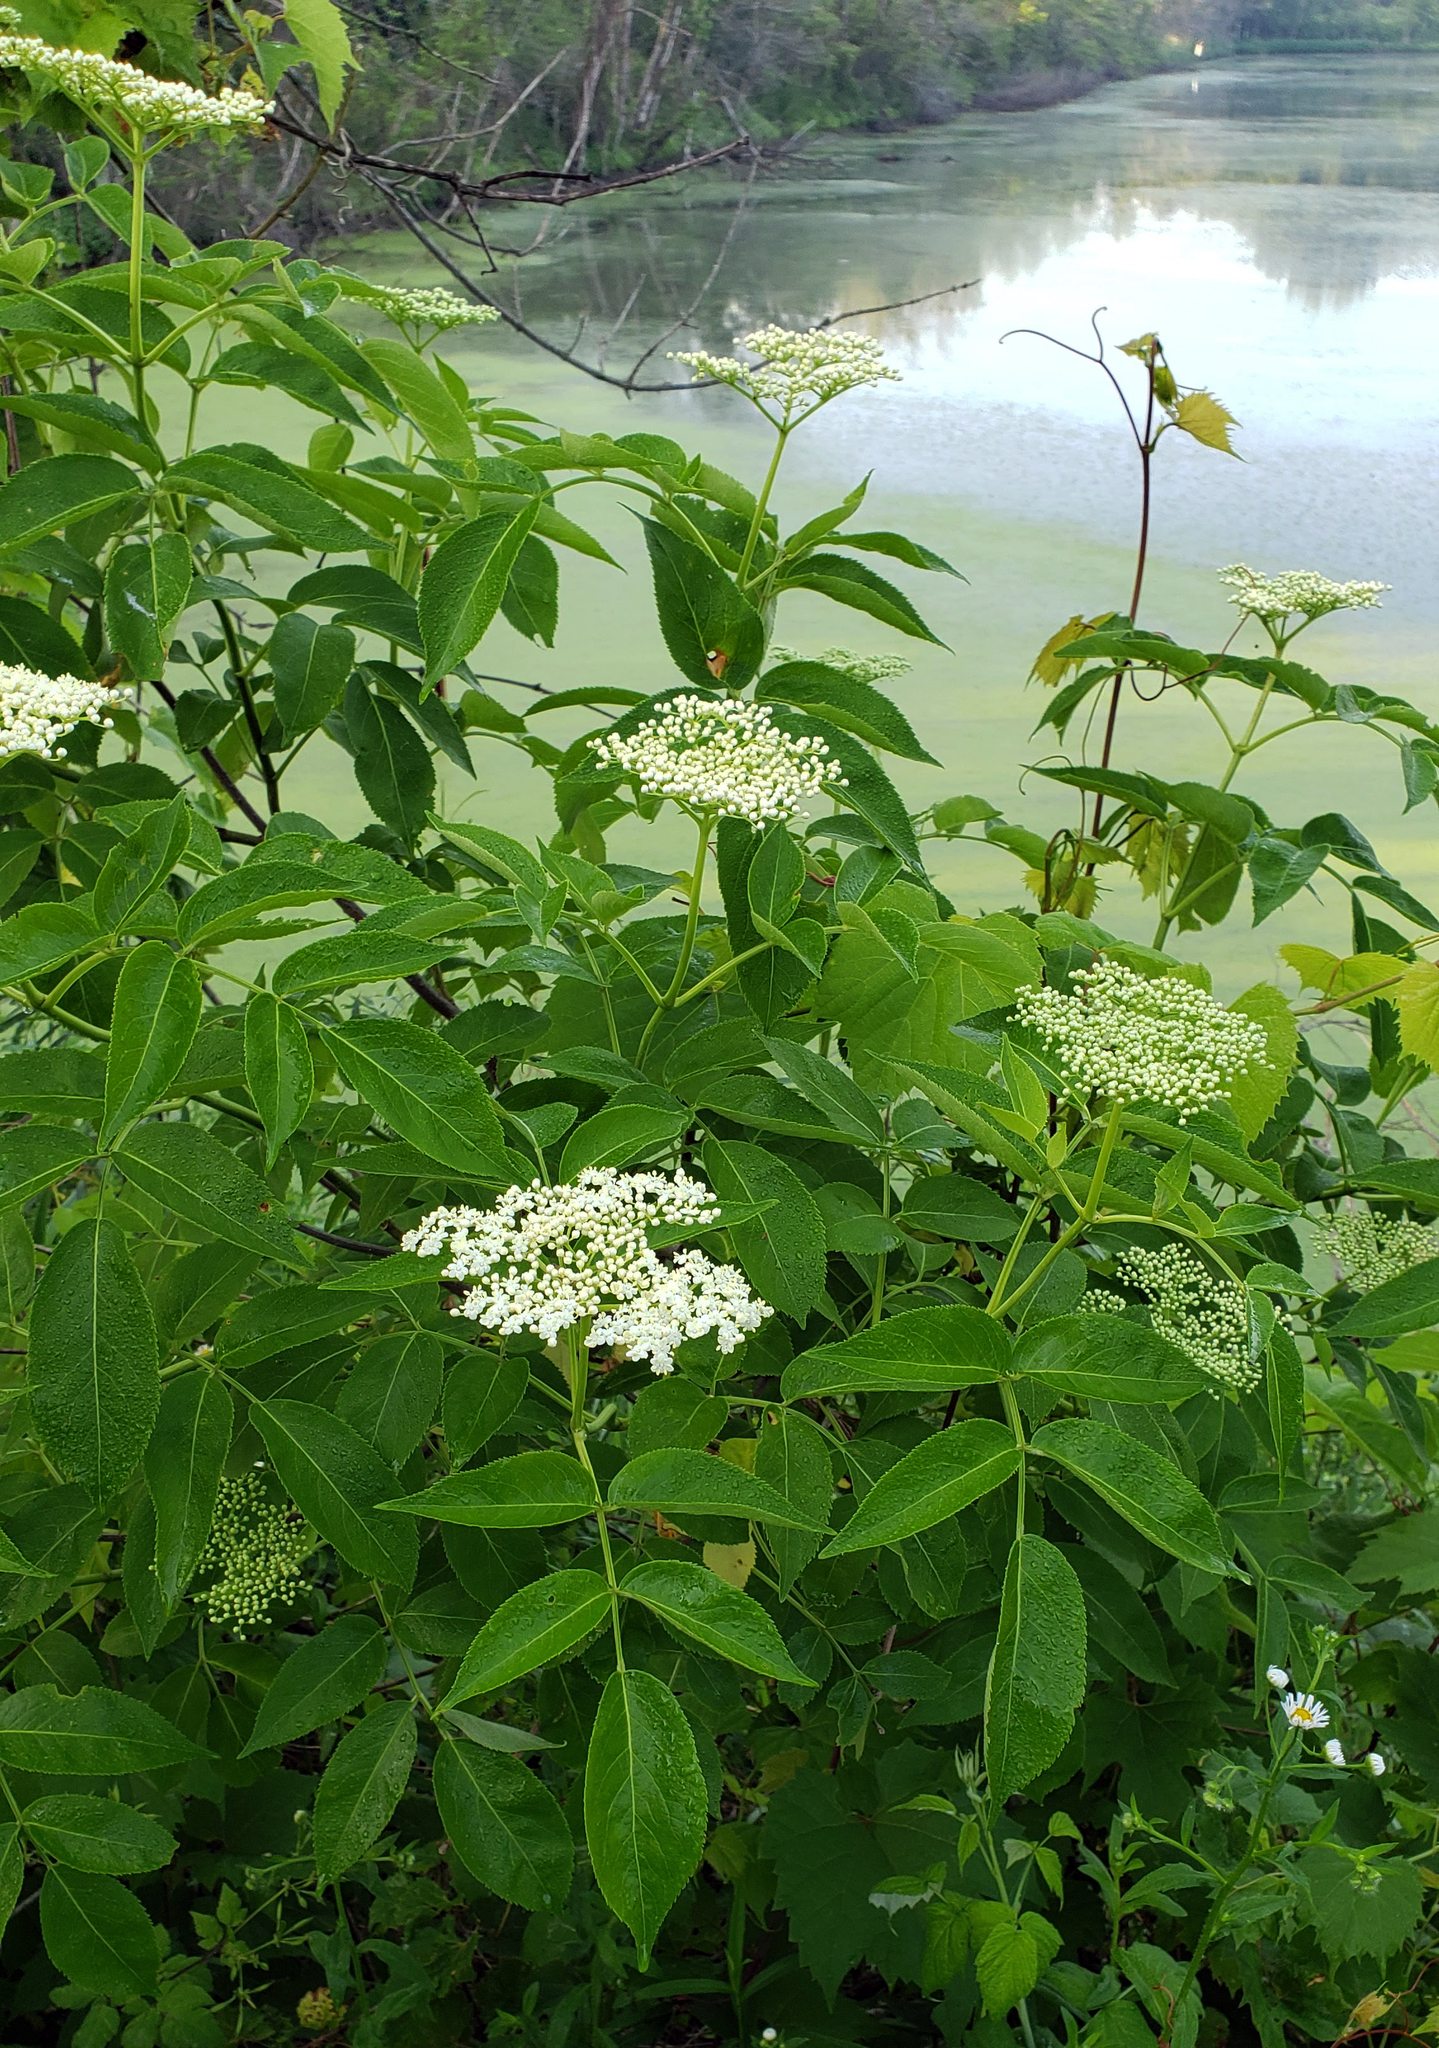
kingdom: Plantae
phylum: Tracheophyta
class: Magnoliopsida
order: Dipsacales
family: Viburnaceae
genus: Sambucus
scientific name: Sambucus canadensis
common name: American elder
